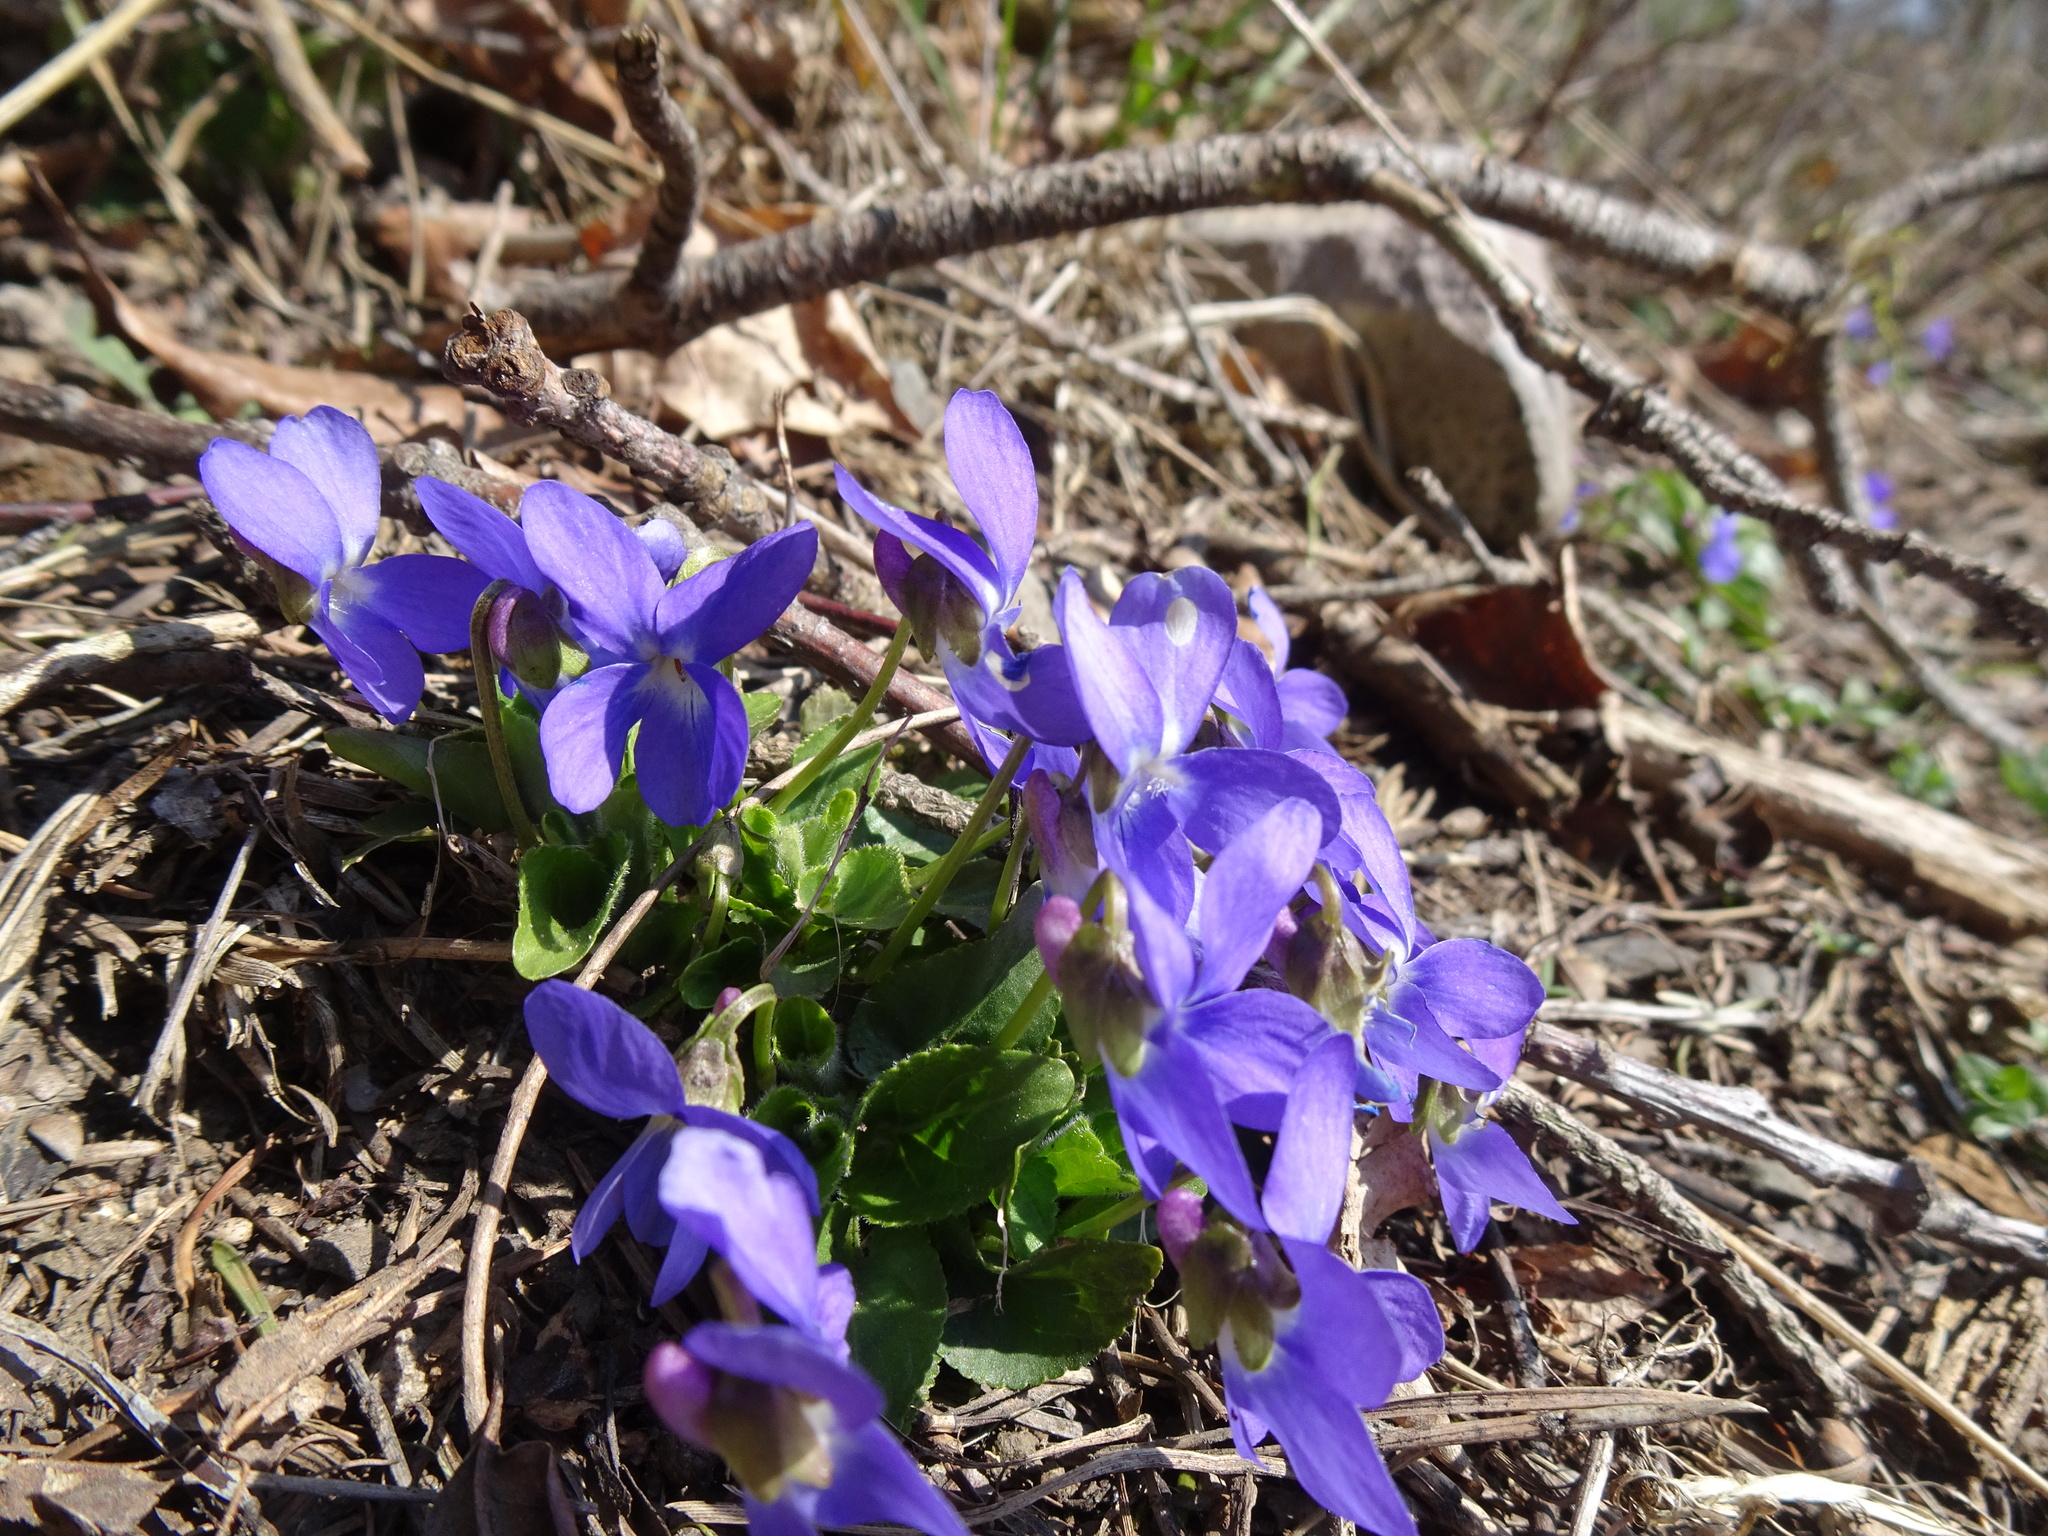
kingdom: Plantae
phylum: Tracheophyta
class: Magnoliopsida
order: Malpighiales
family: Violaceae
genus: Viola
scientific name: Viola odorata
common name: Sweet violet
